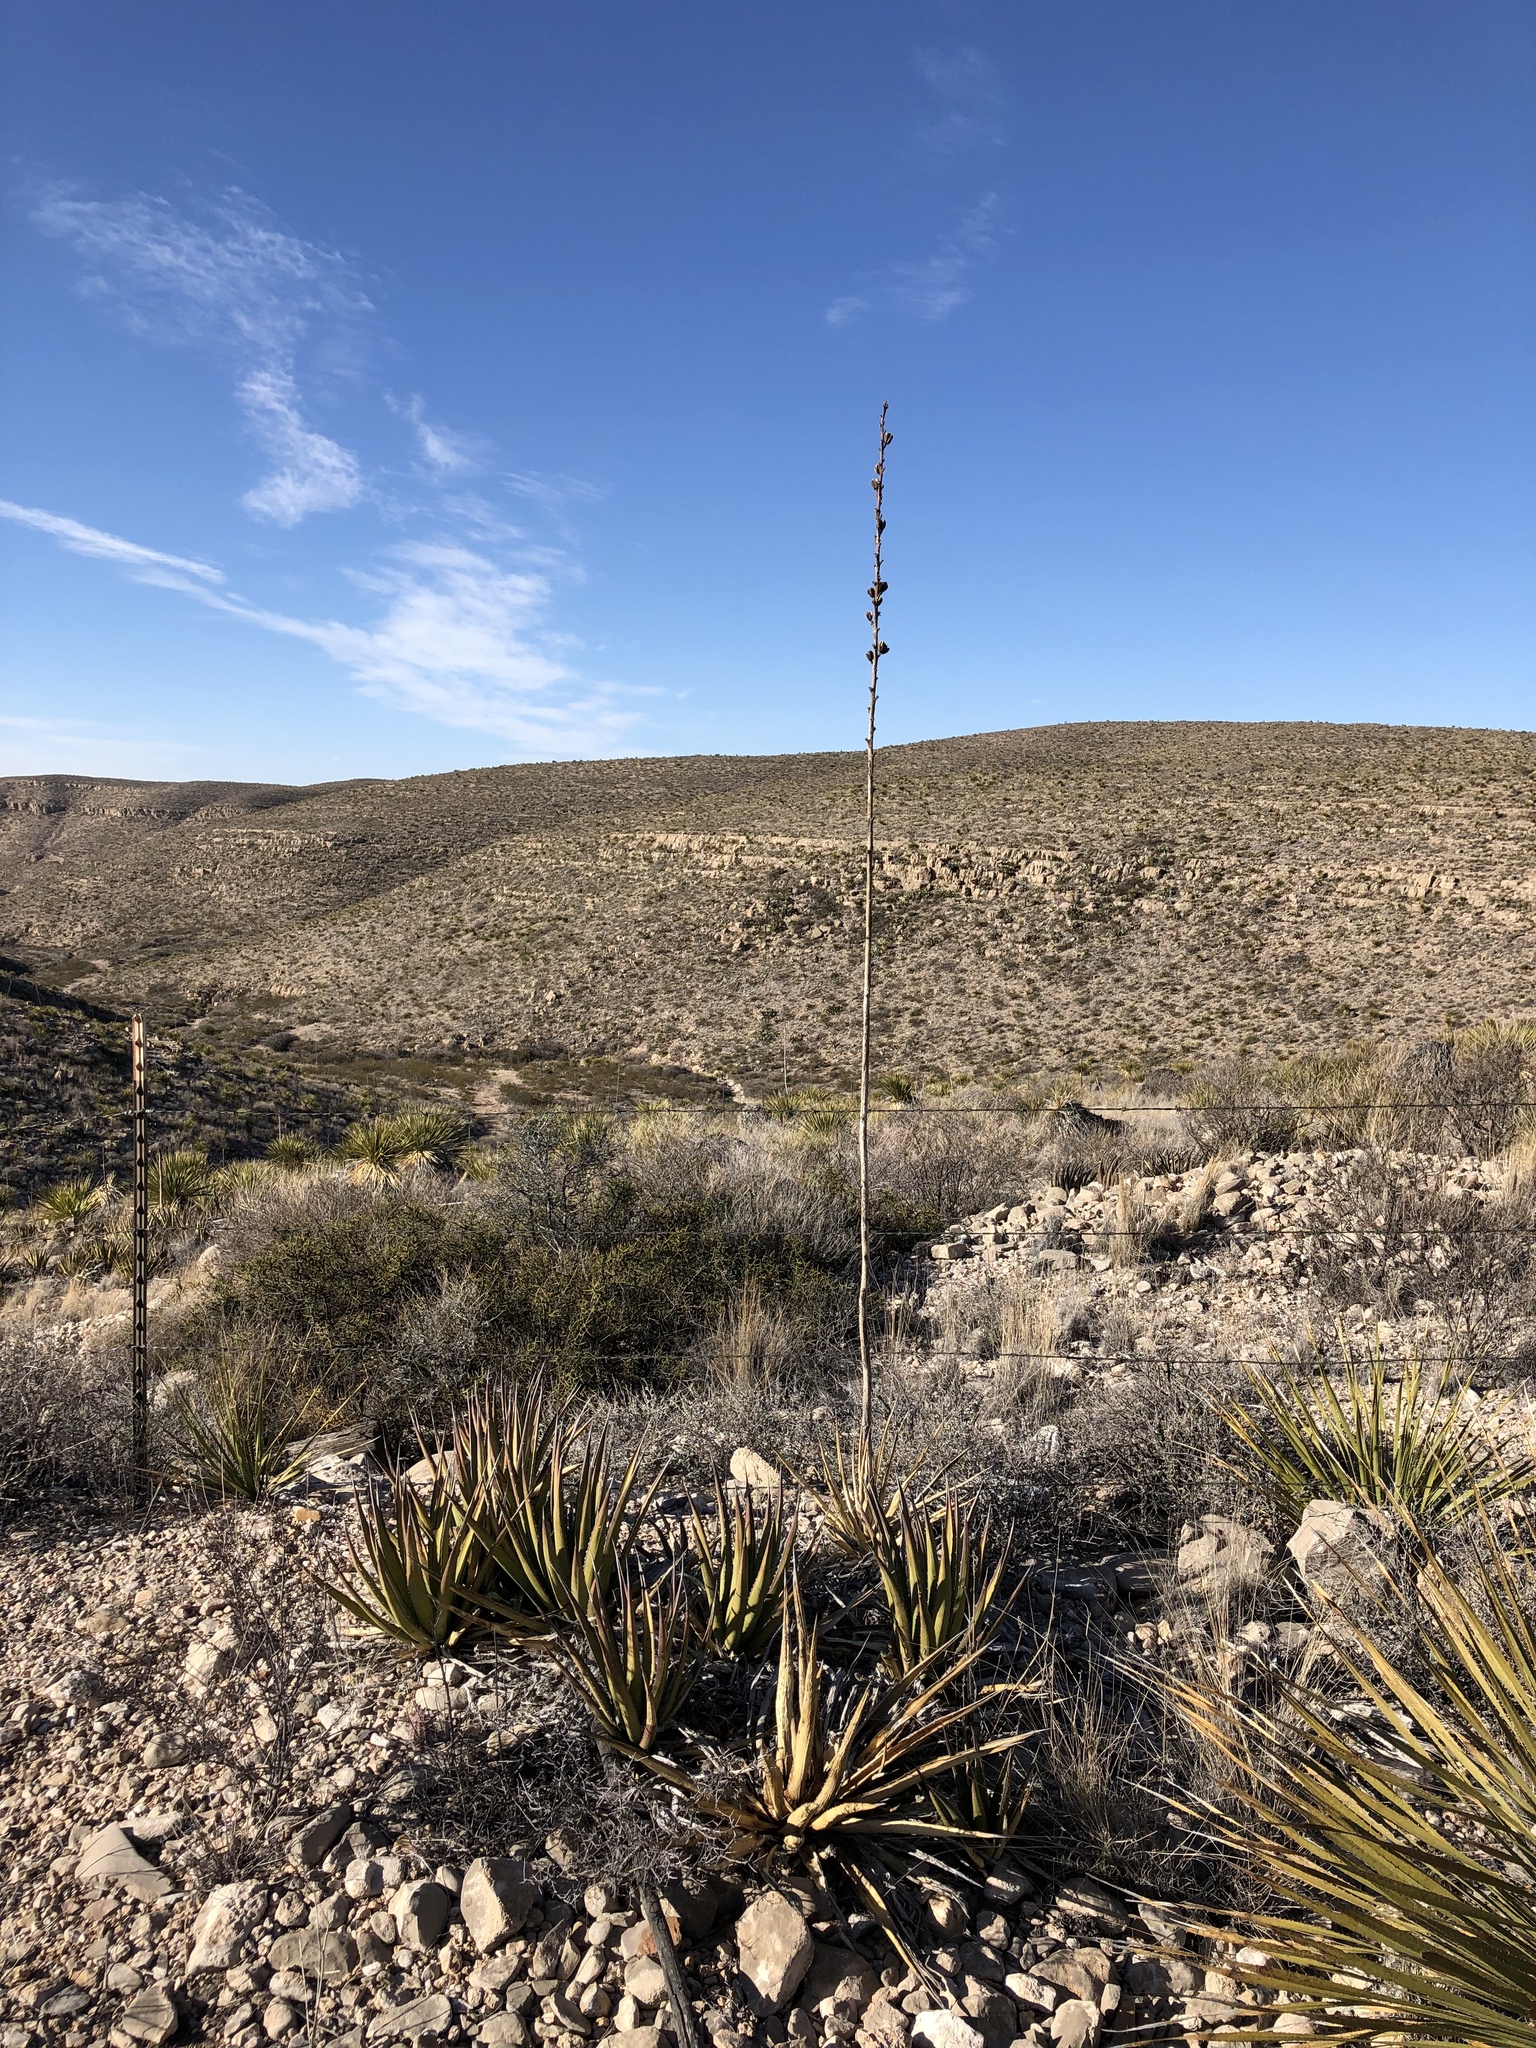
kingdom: Plantae
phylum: Tracheophyta
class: Liliopsida
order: Asparagales
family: Asparagaceae
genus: Agave
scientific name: Agave lechuguilla
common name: Lecheguilla agave
